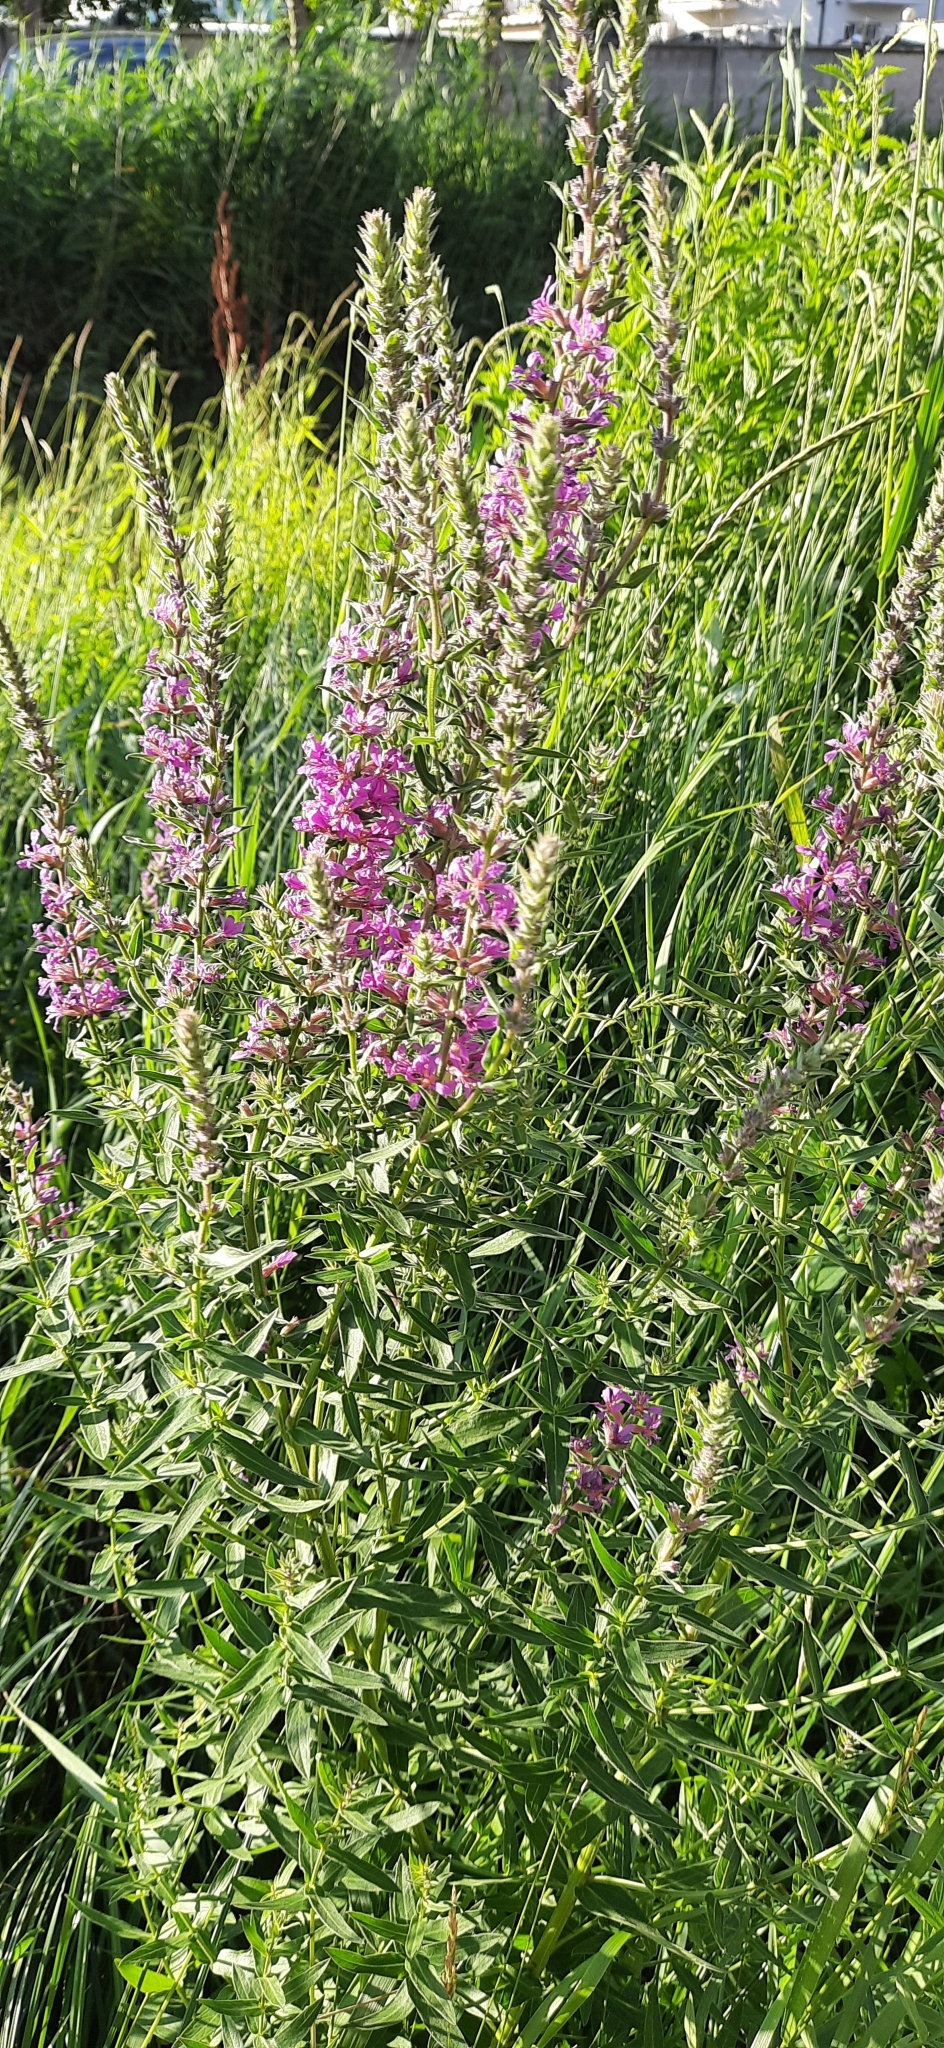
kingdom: Plantae
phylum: Tracheophyta
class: Magnoliopsida
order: Myrtales
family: Lythraceae
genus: Lythrum
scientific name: Lythrum salicaria
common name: Purple loosestrife
